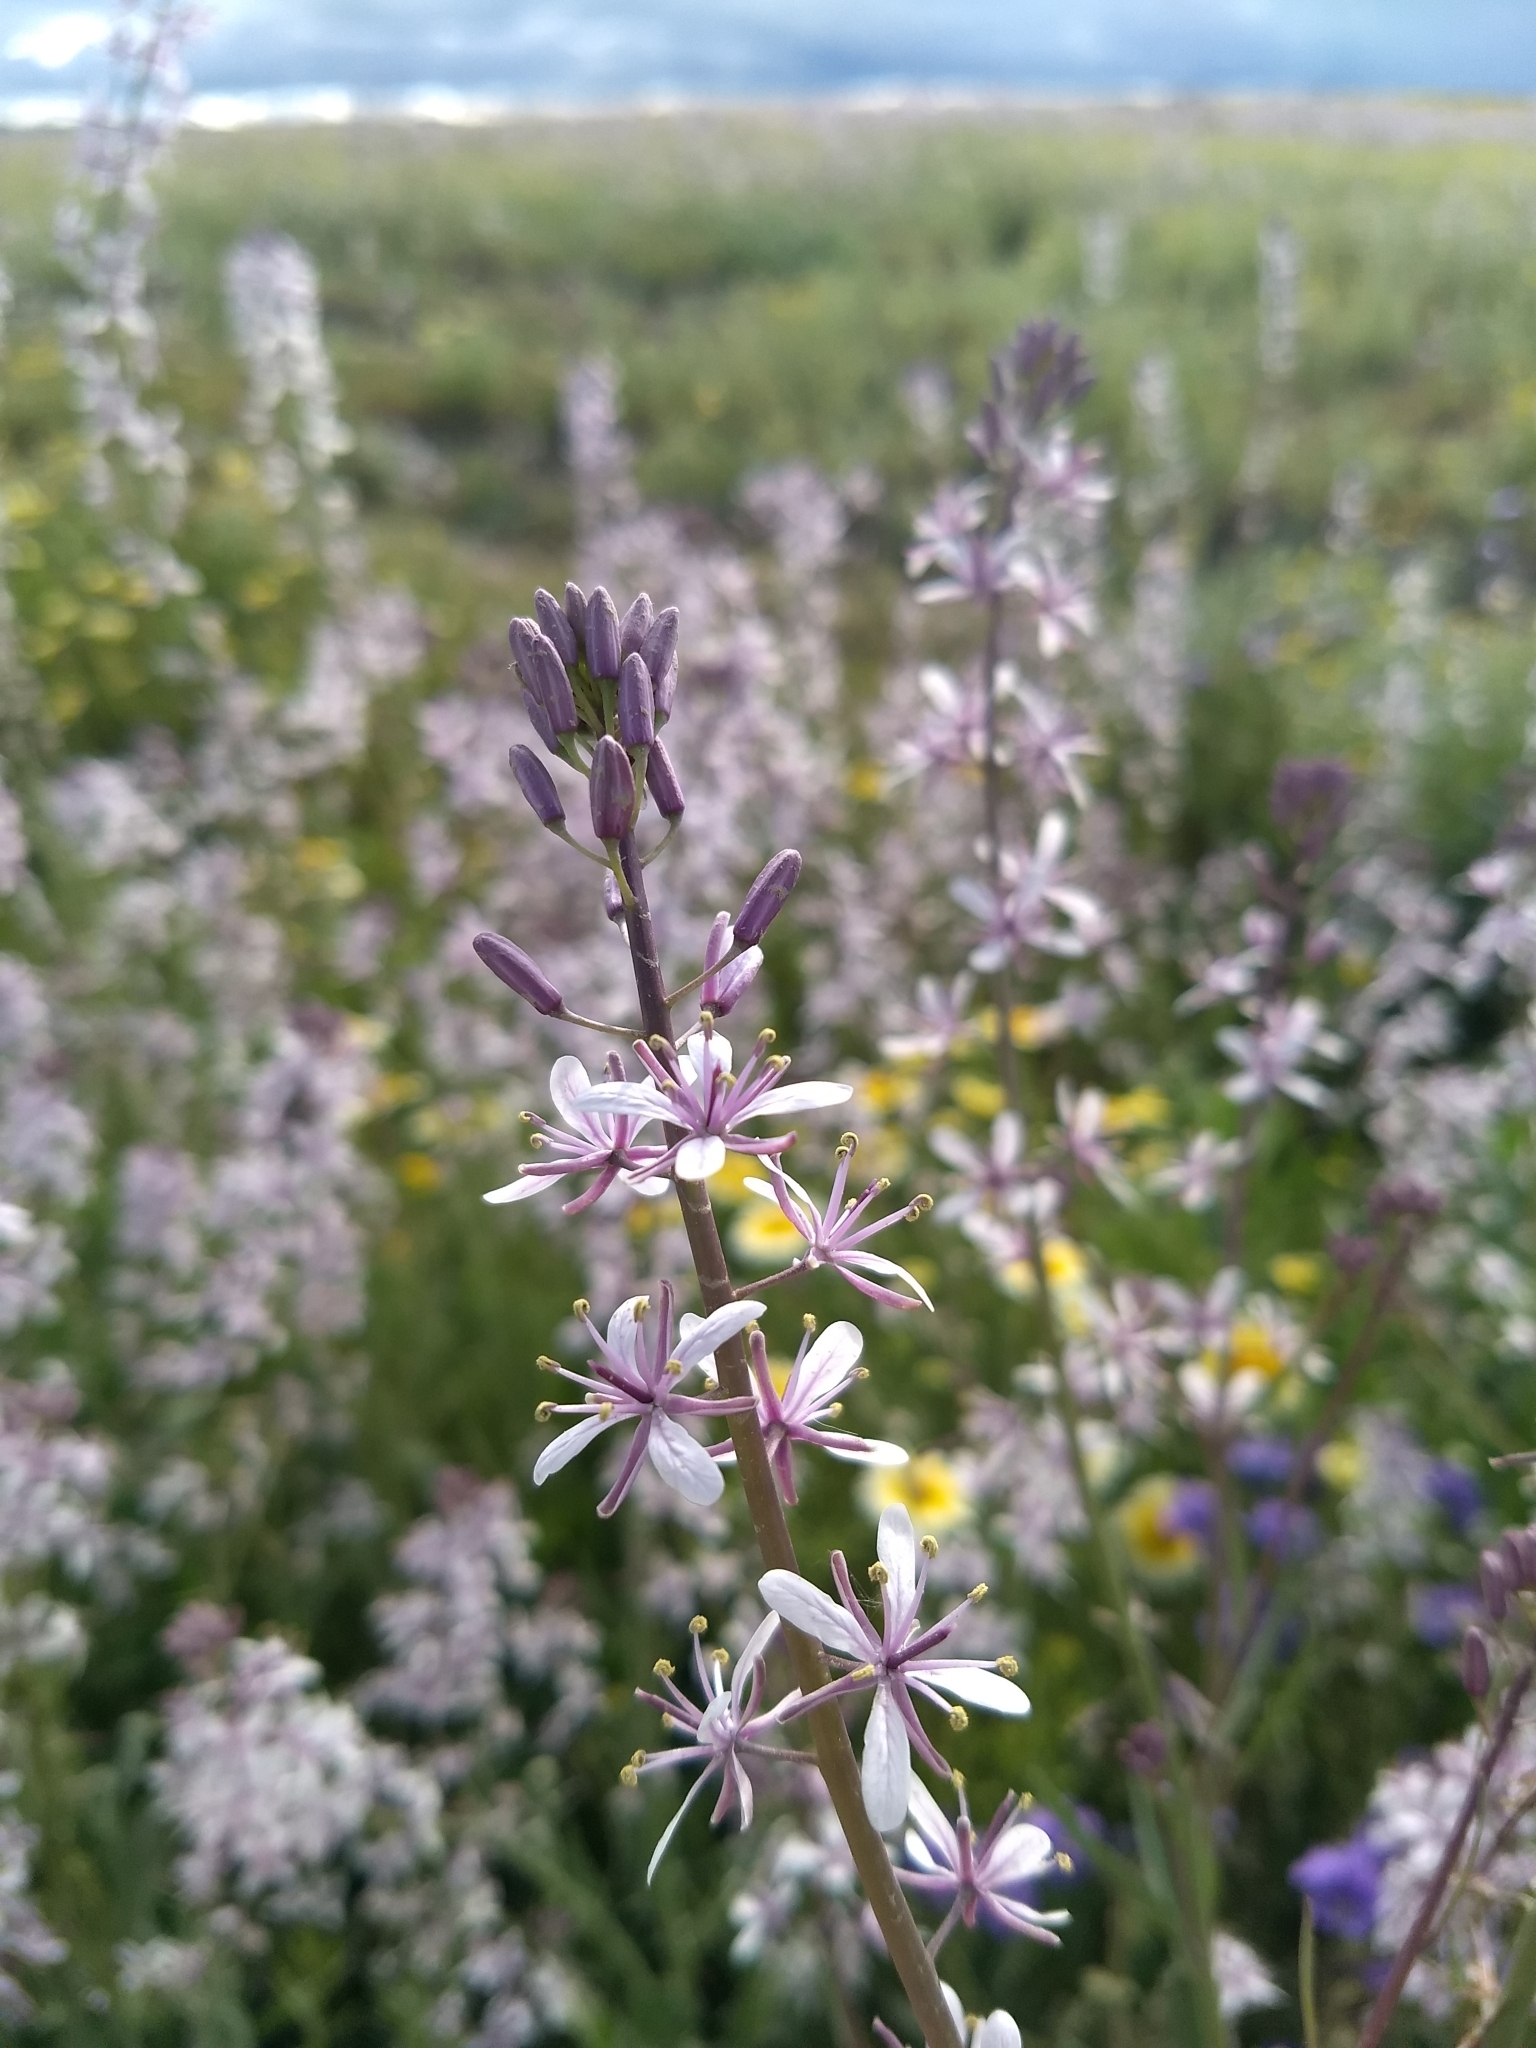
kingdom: Plantae
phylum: Tracheophyta
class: Magnoliopsida
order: Brassicales
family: Brassicaceae
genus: Streptanthus
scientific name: Streptanthus anceps
